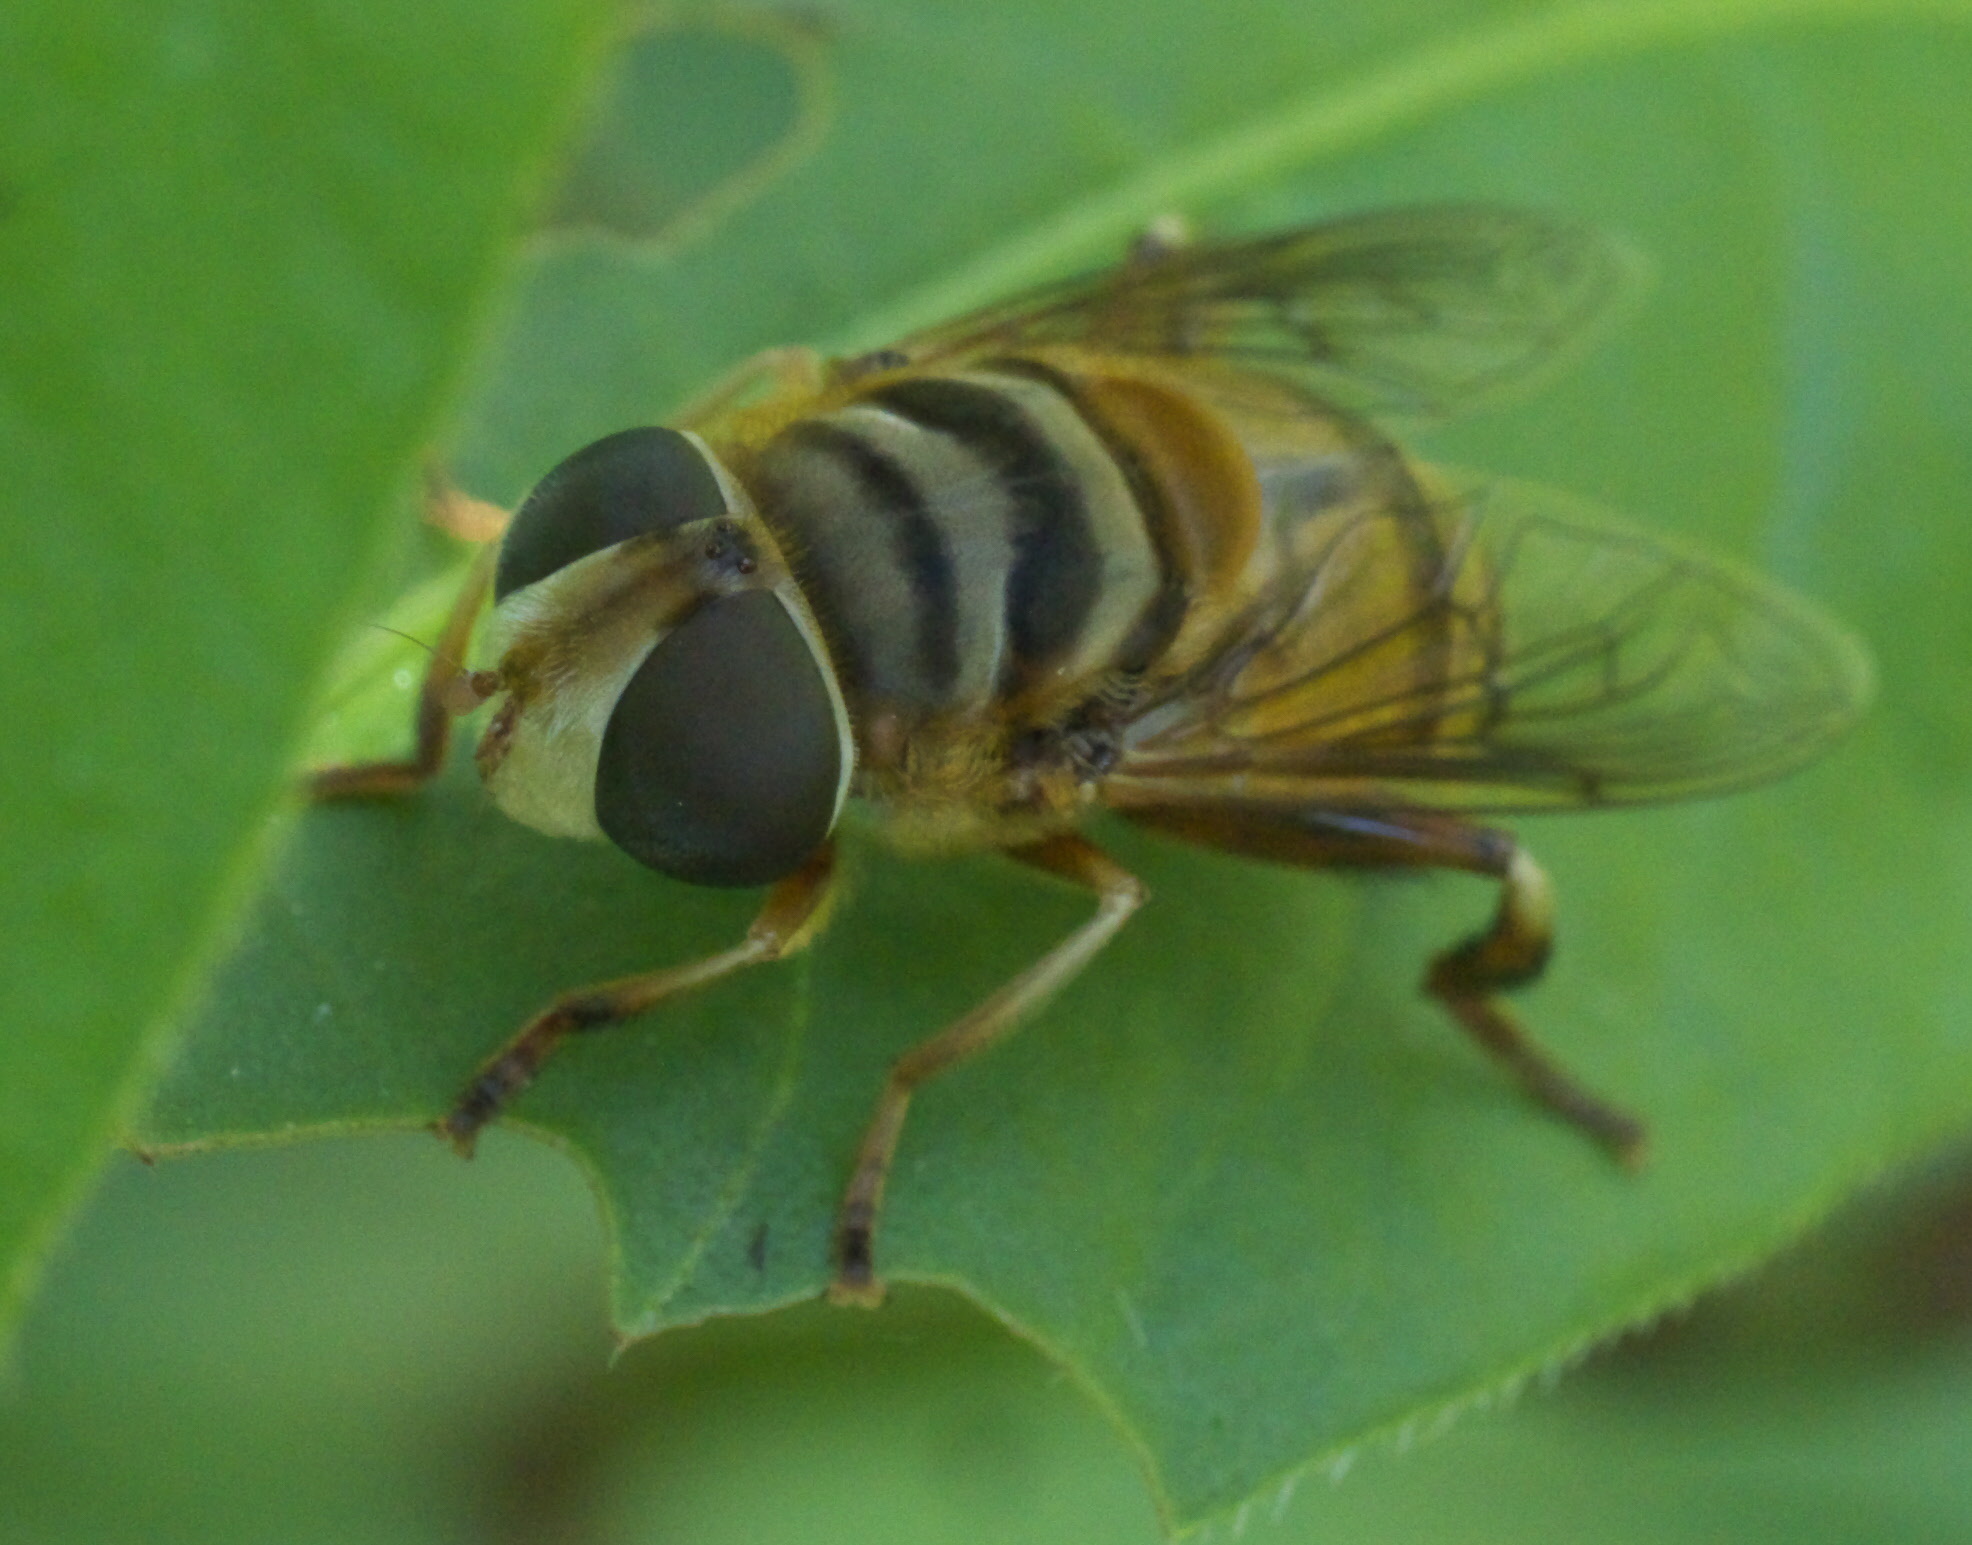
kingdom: Animalia
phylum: Arthropoda
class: Insecta
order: Diptera
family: Syrphidae
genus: Palpada
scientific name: Palpada vinetorum
